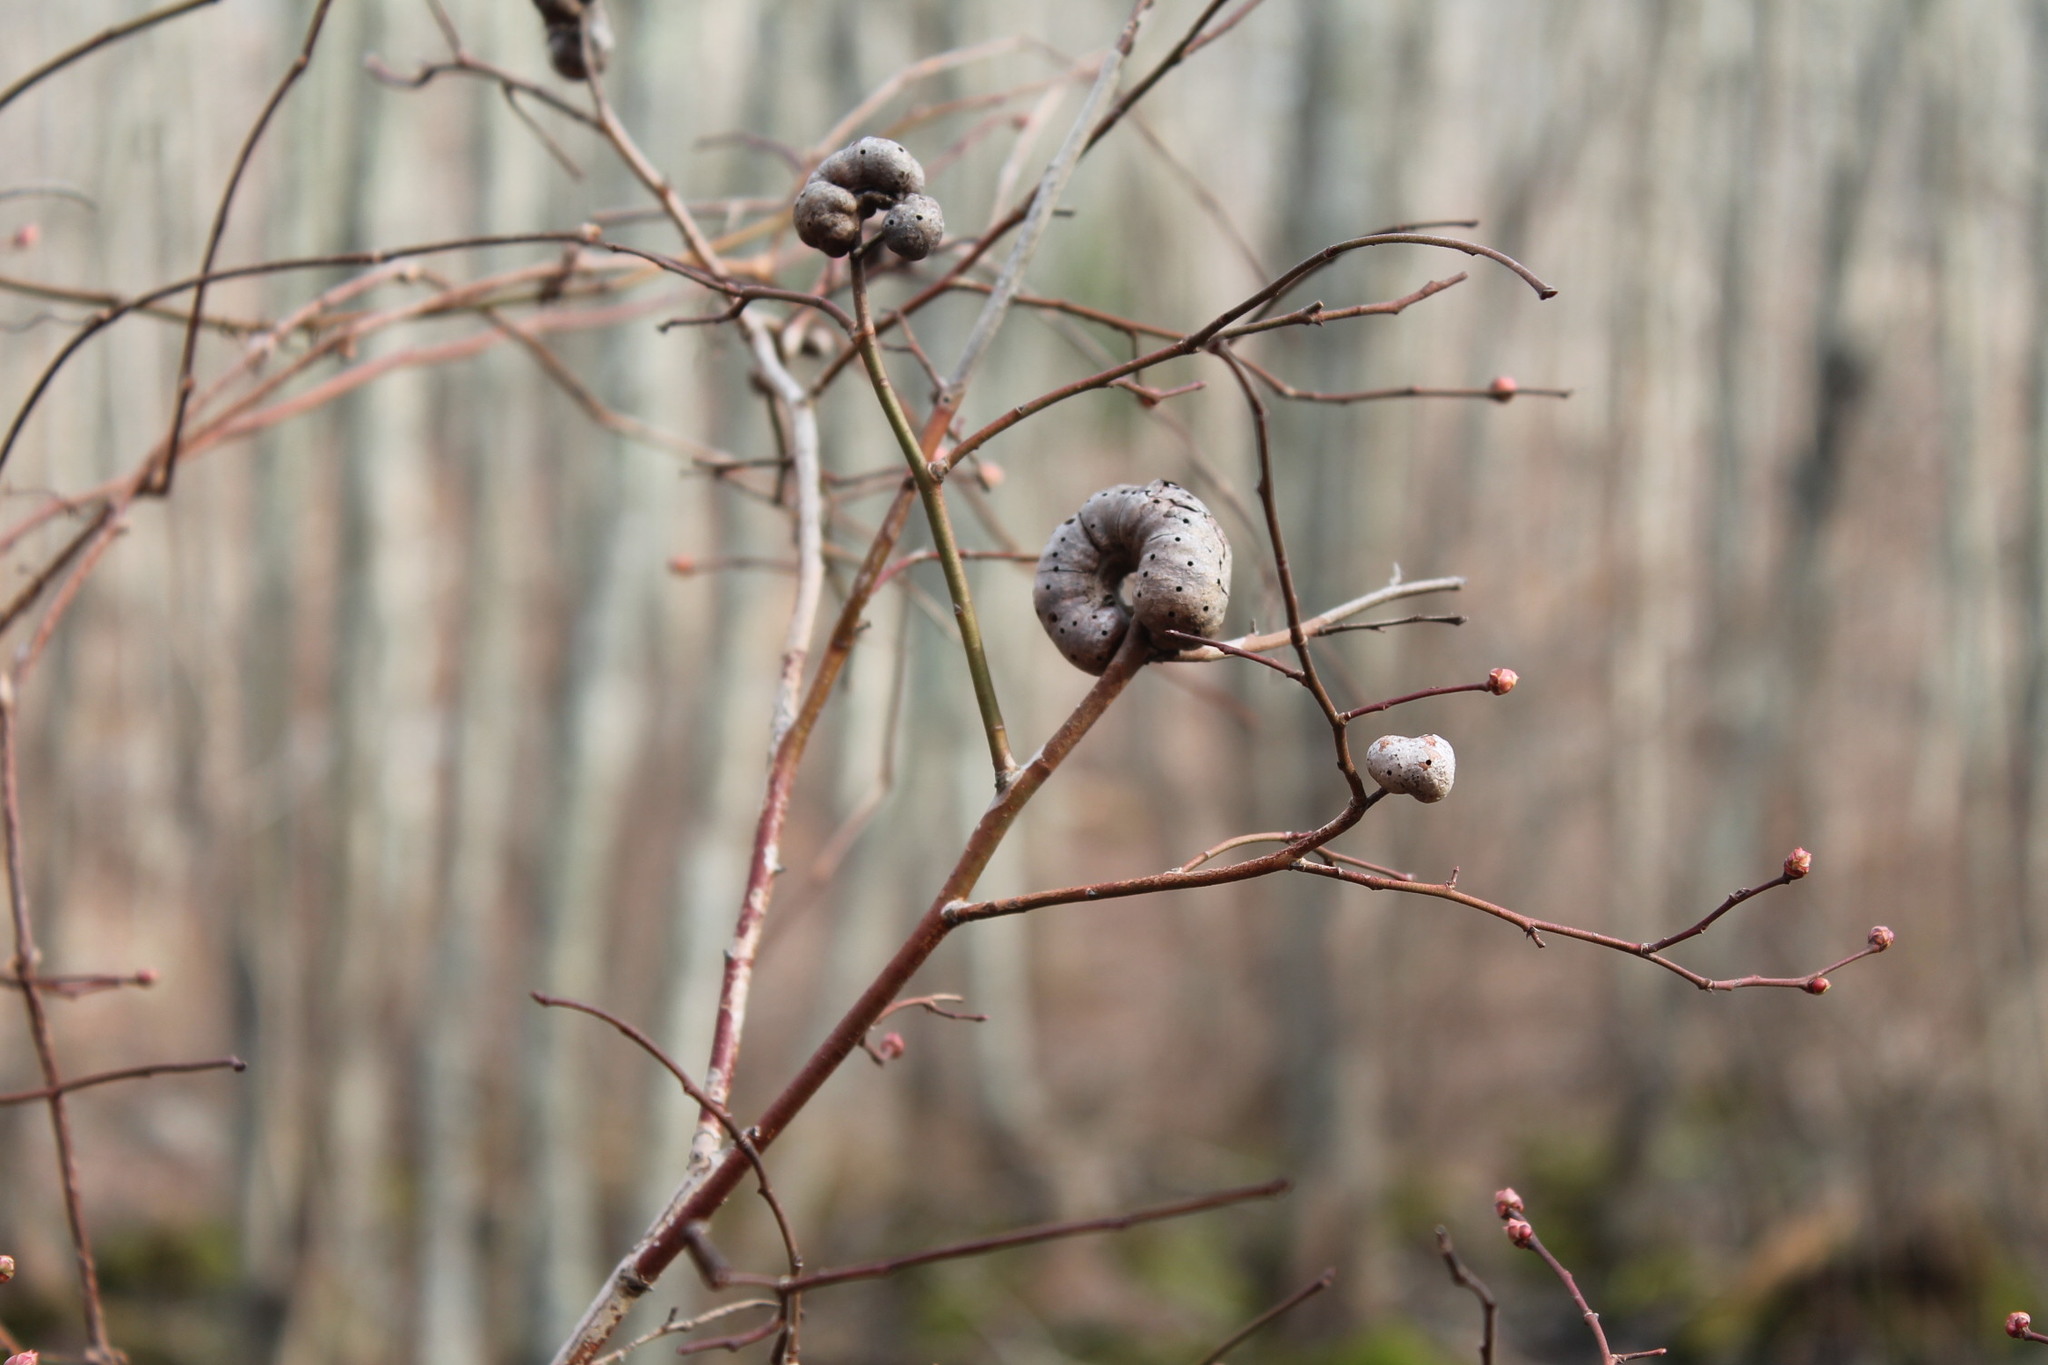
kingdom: Animalia
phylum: Arthropoda
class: Insecta
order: Hymenoptera
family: Pteromalidae
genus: Hemadas
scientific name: Hemadas nubilipennis
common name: Blueberry stem gall wasp
